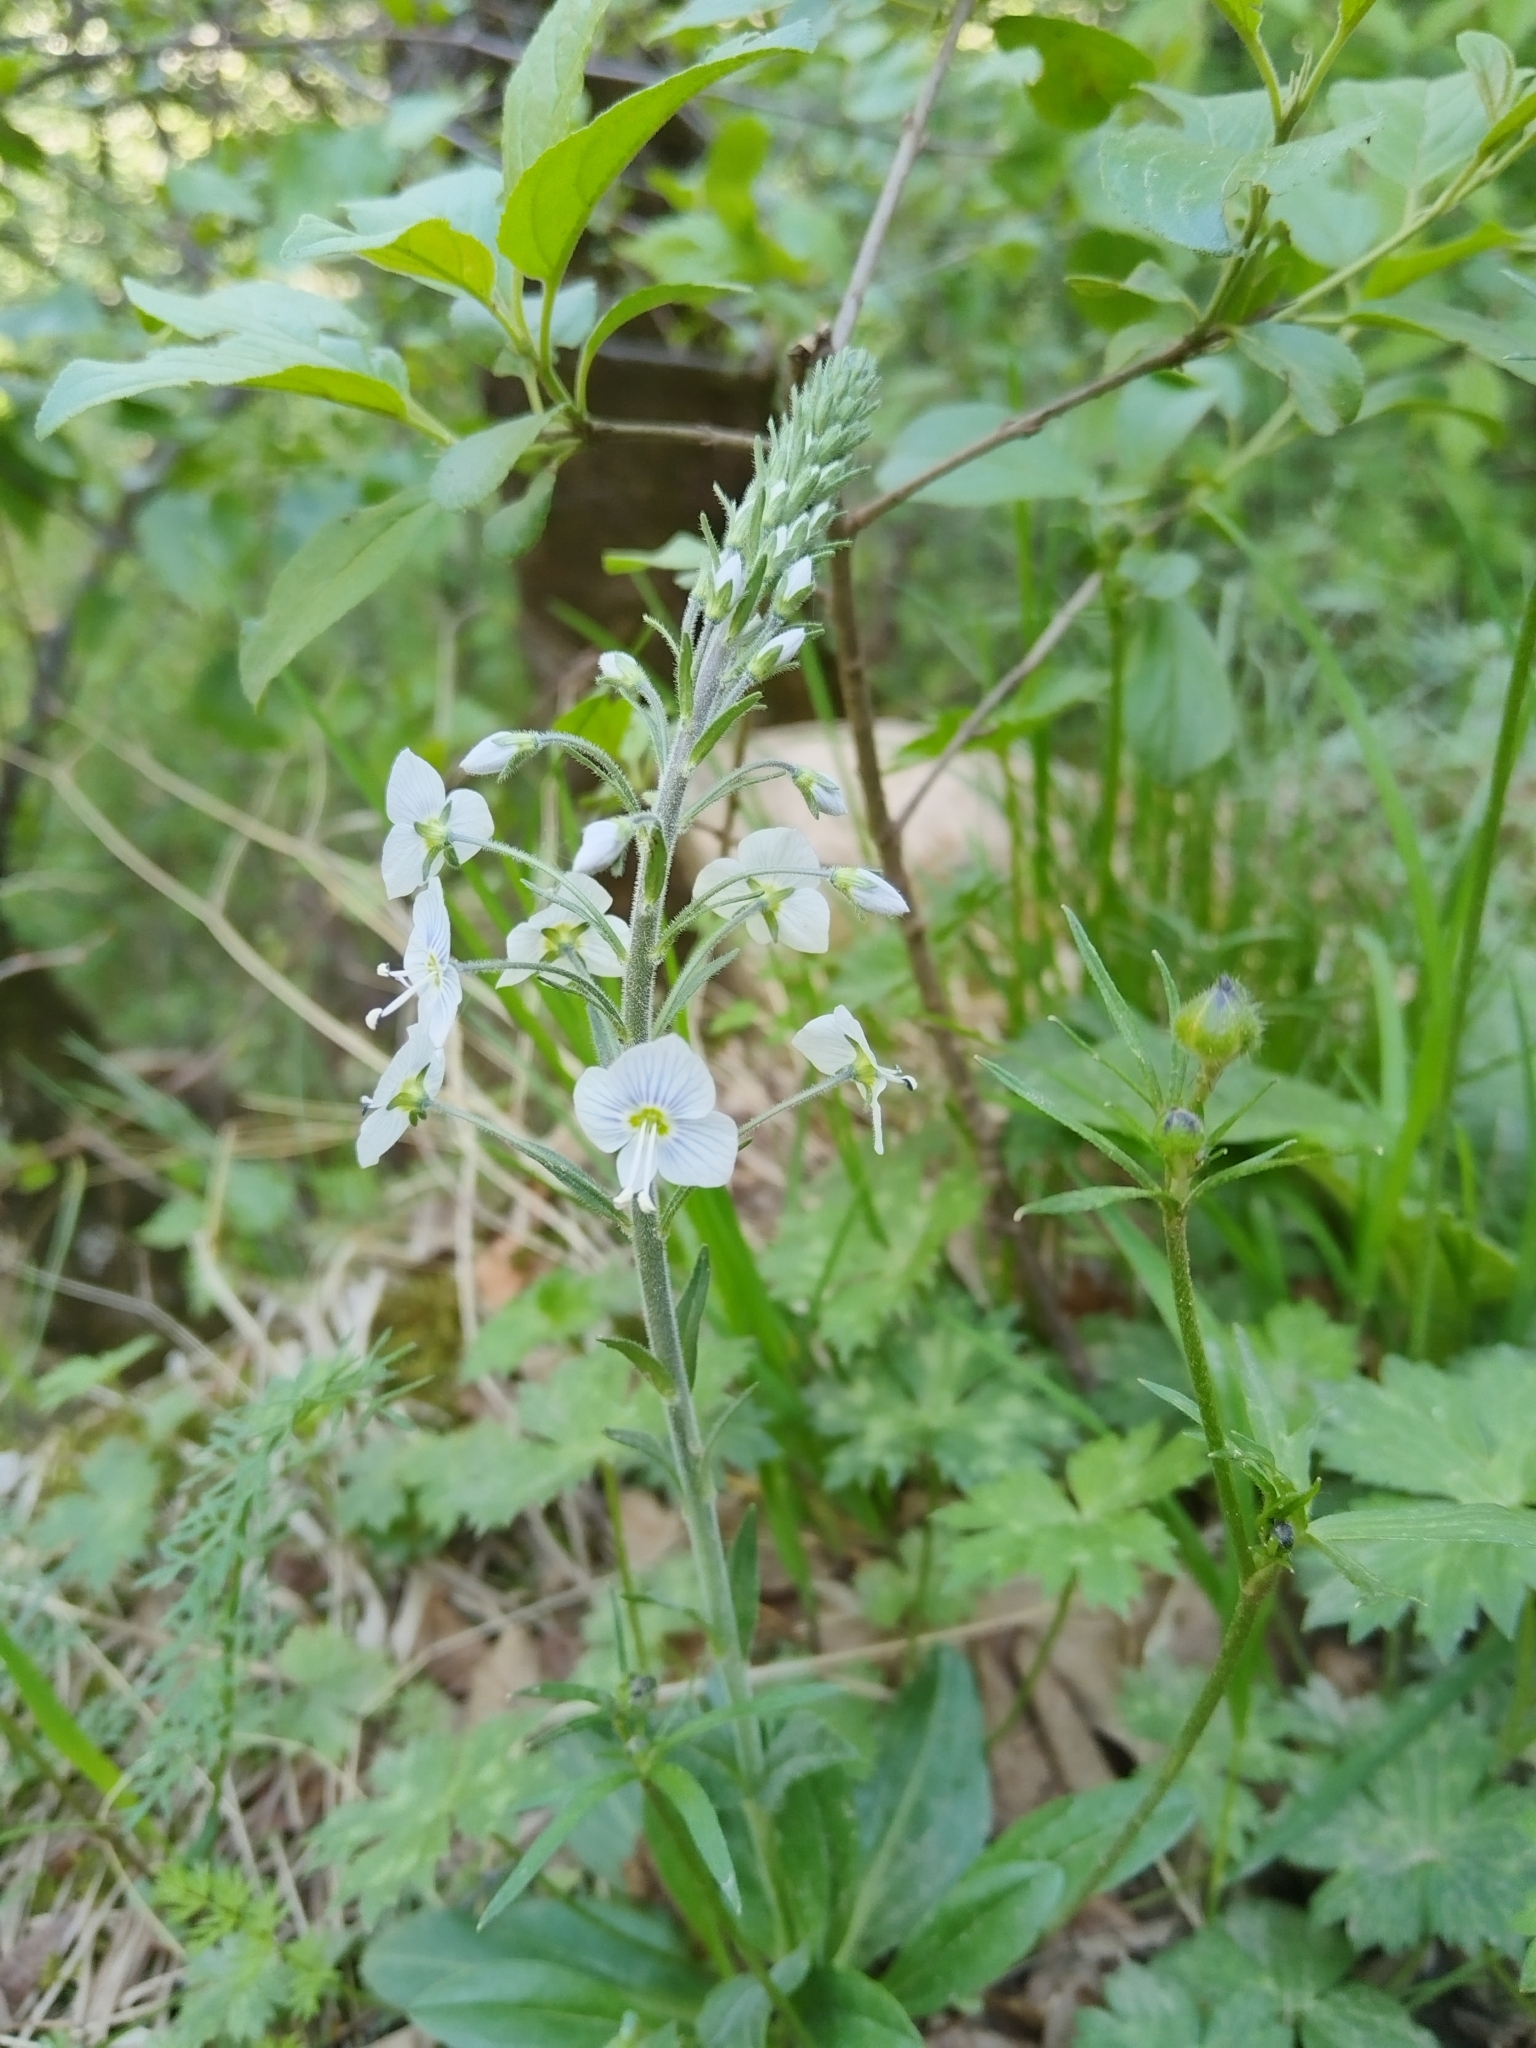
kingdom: Plantae
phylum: Tracheophyta
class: Magnoliopsida
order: Lamiales
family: Plantaginaceae
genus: Veronica
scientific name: Veronica gentianoides
